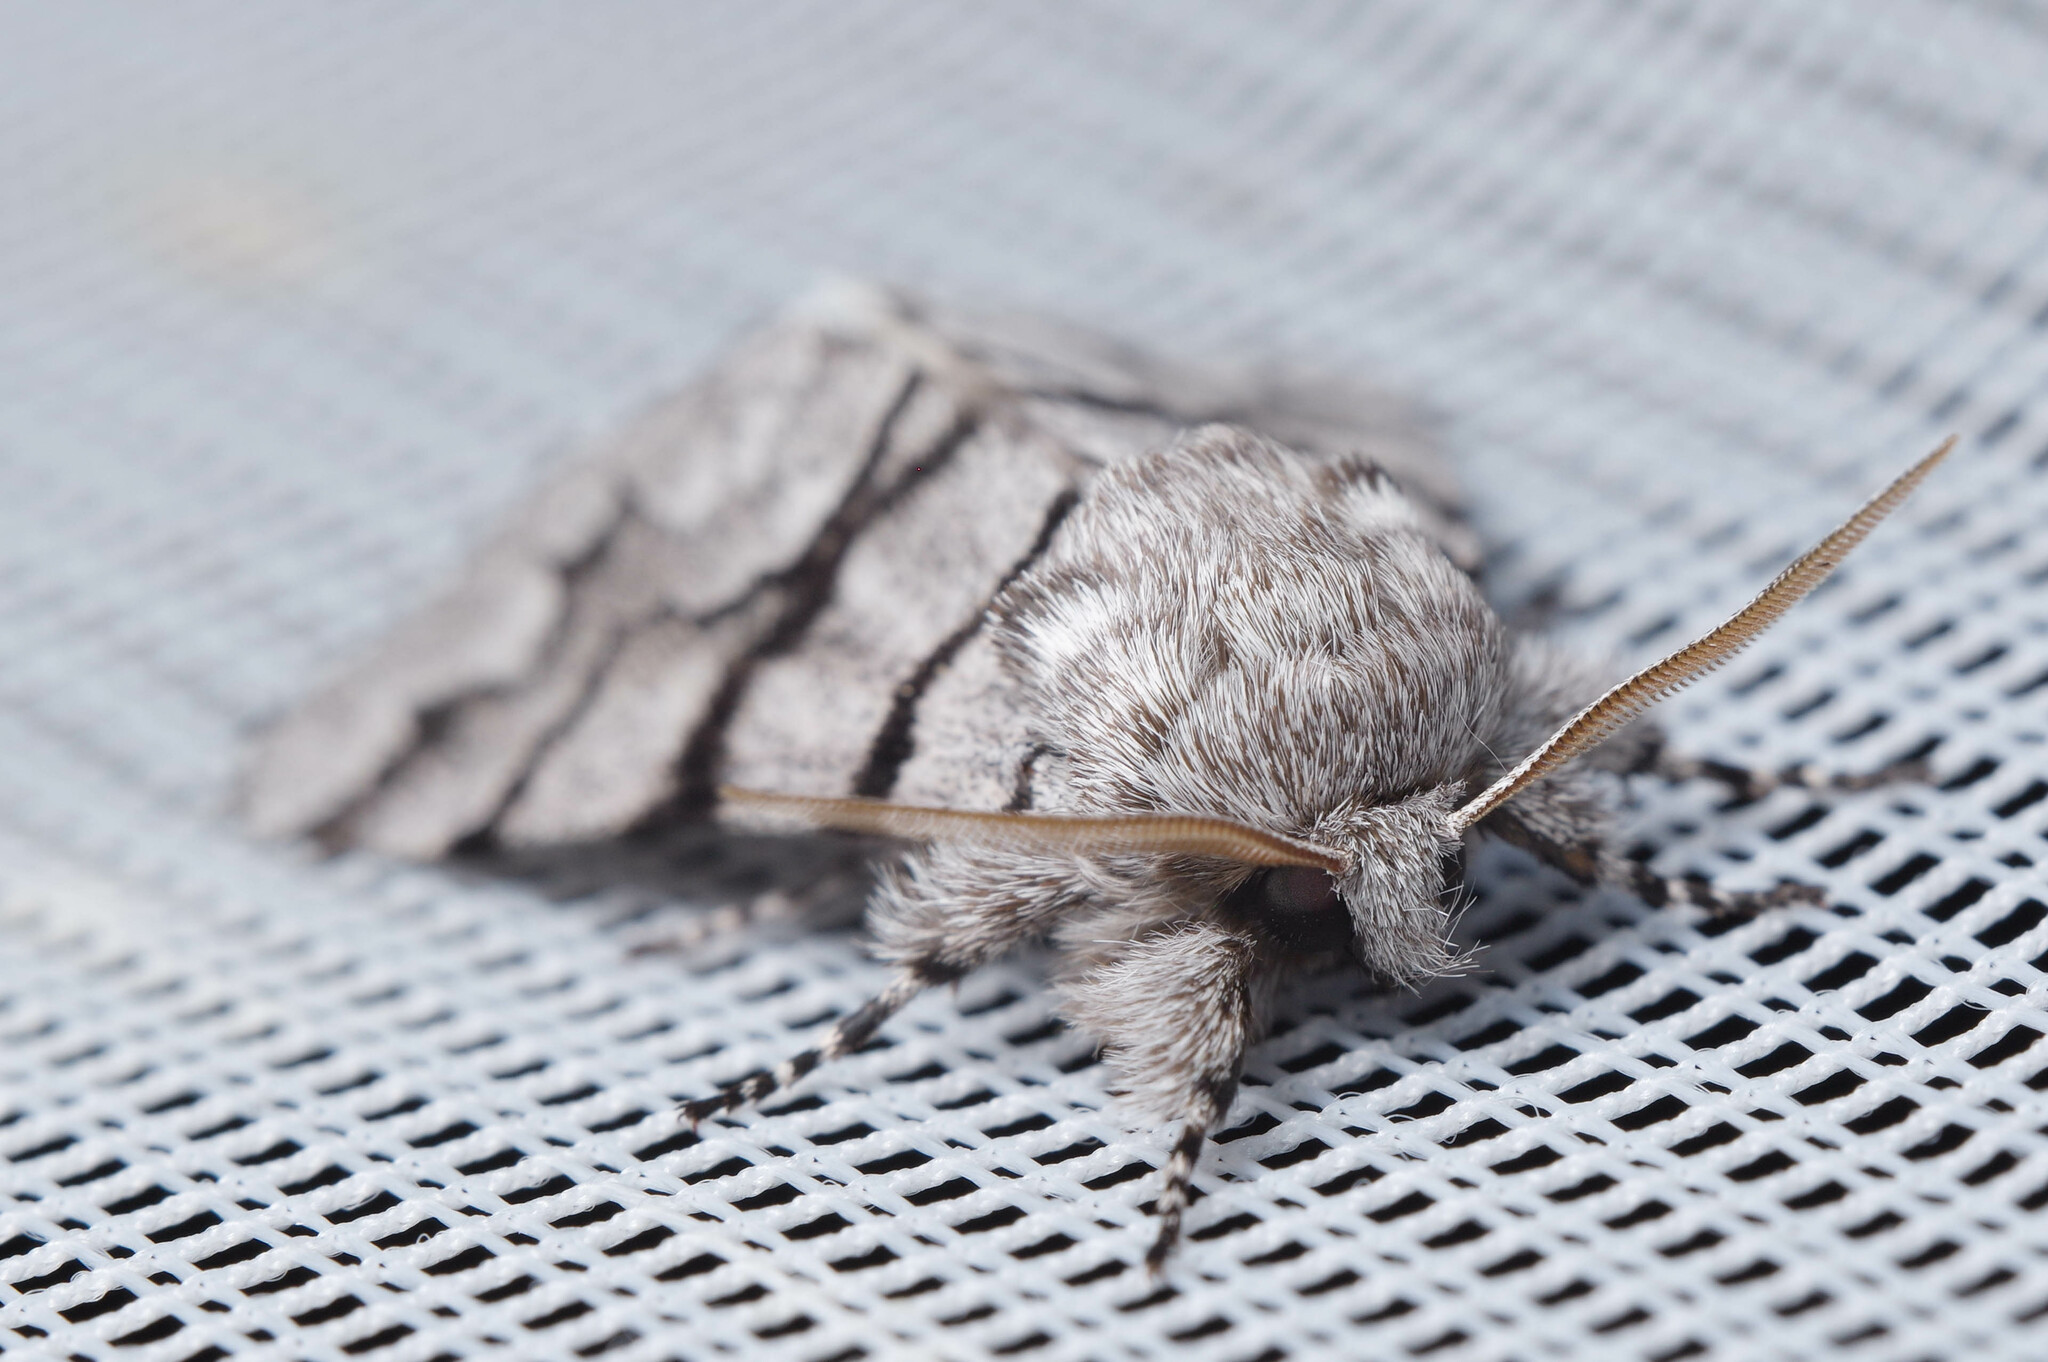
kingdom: Animalia
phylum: Arthropoda
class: Insecta
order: Lepidoptera
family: Noctuidae
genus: Panthea
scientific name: Panthea furcilla
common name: Eastern panthea moth
